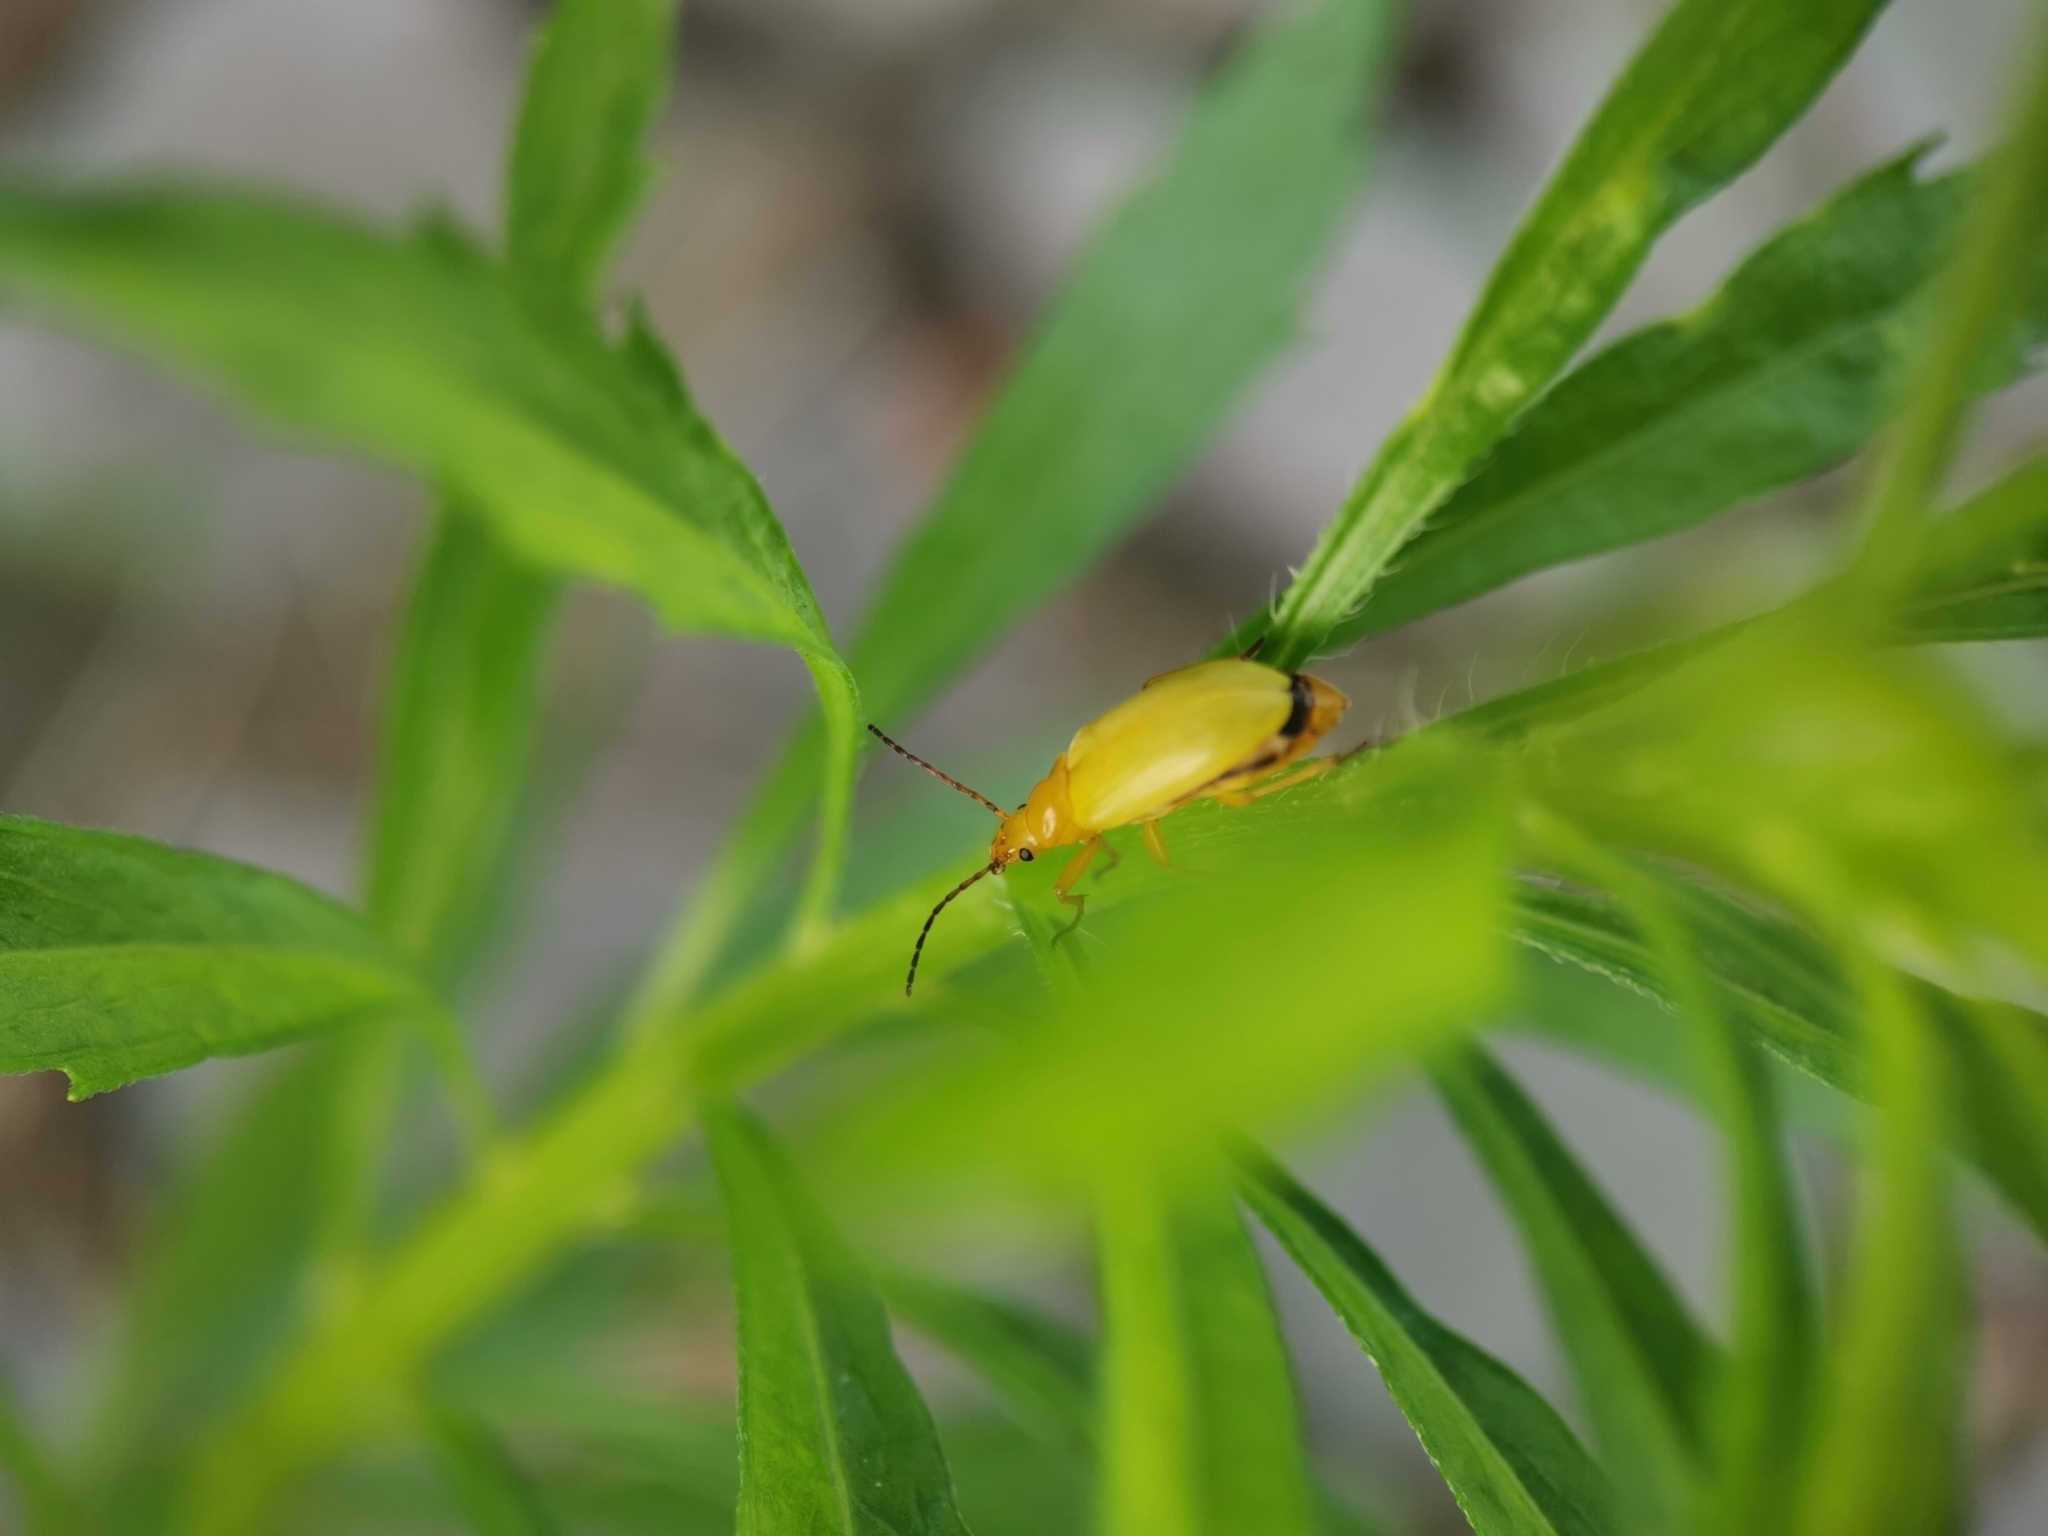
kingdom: Animalia
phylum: Arthropoda
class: Insecta
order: Coleoptera
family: Tenebrionidae
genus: Cteniopus
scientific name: Cteniopus sulphureus
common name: Sulphur beetle
